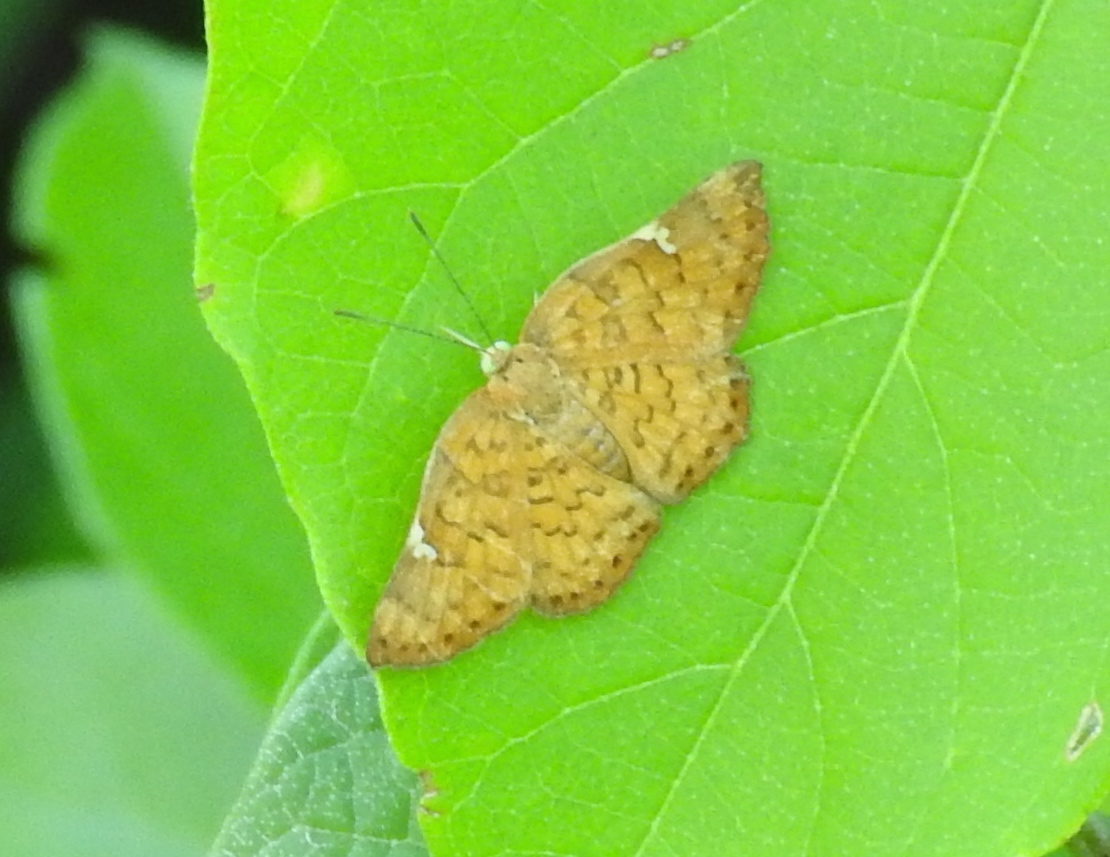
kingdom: Animalia
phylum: Arthropoda
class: Insecta
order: Lepidoptera
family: Riodinidae
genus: Curvie
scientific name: Curvie emesia
